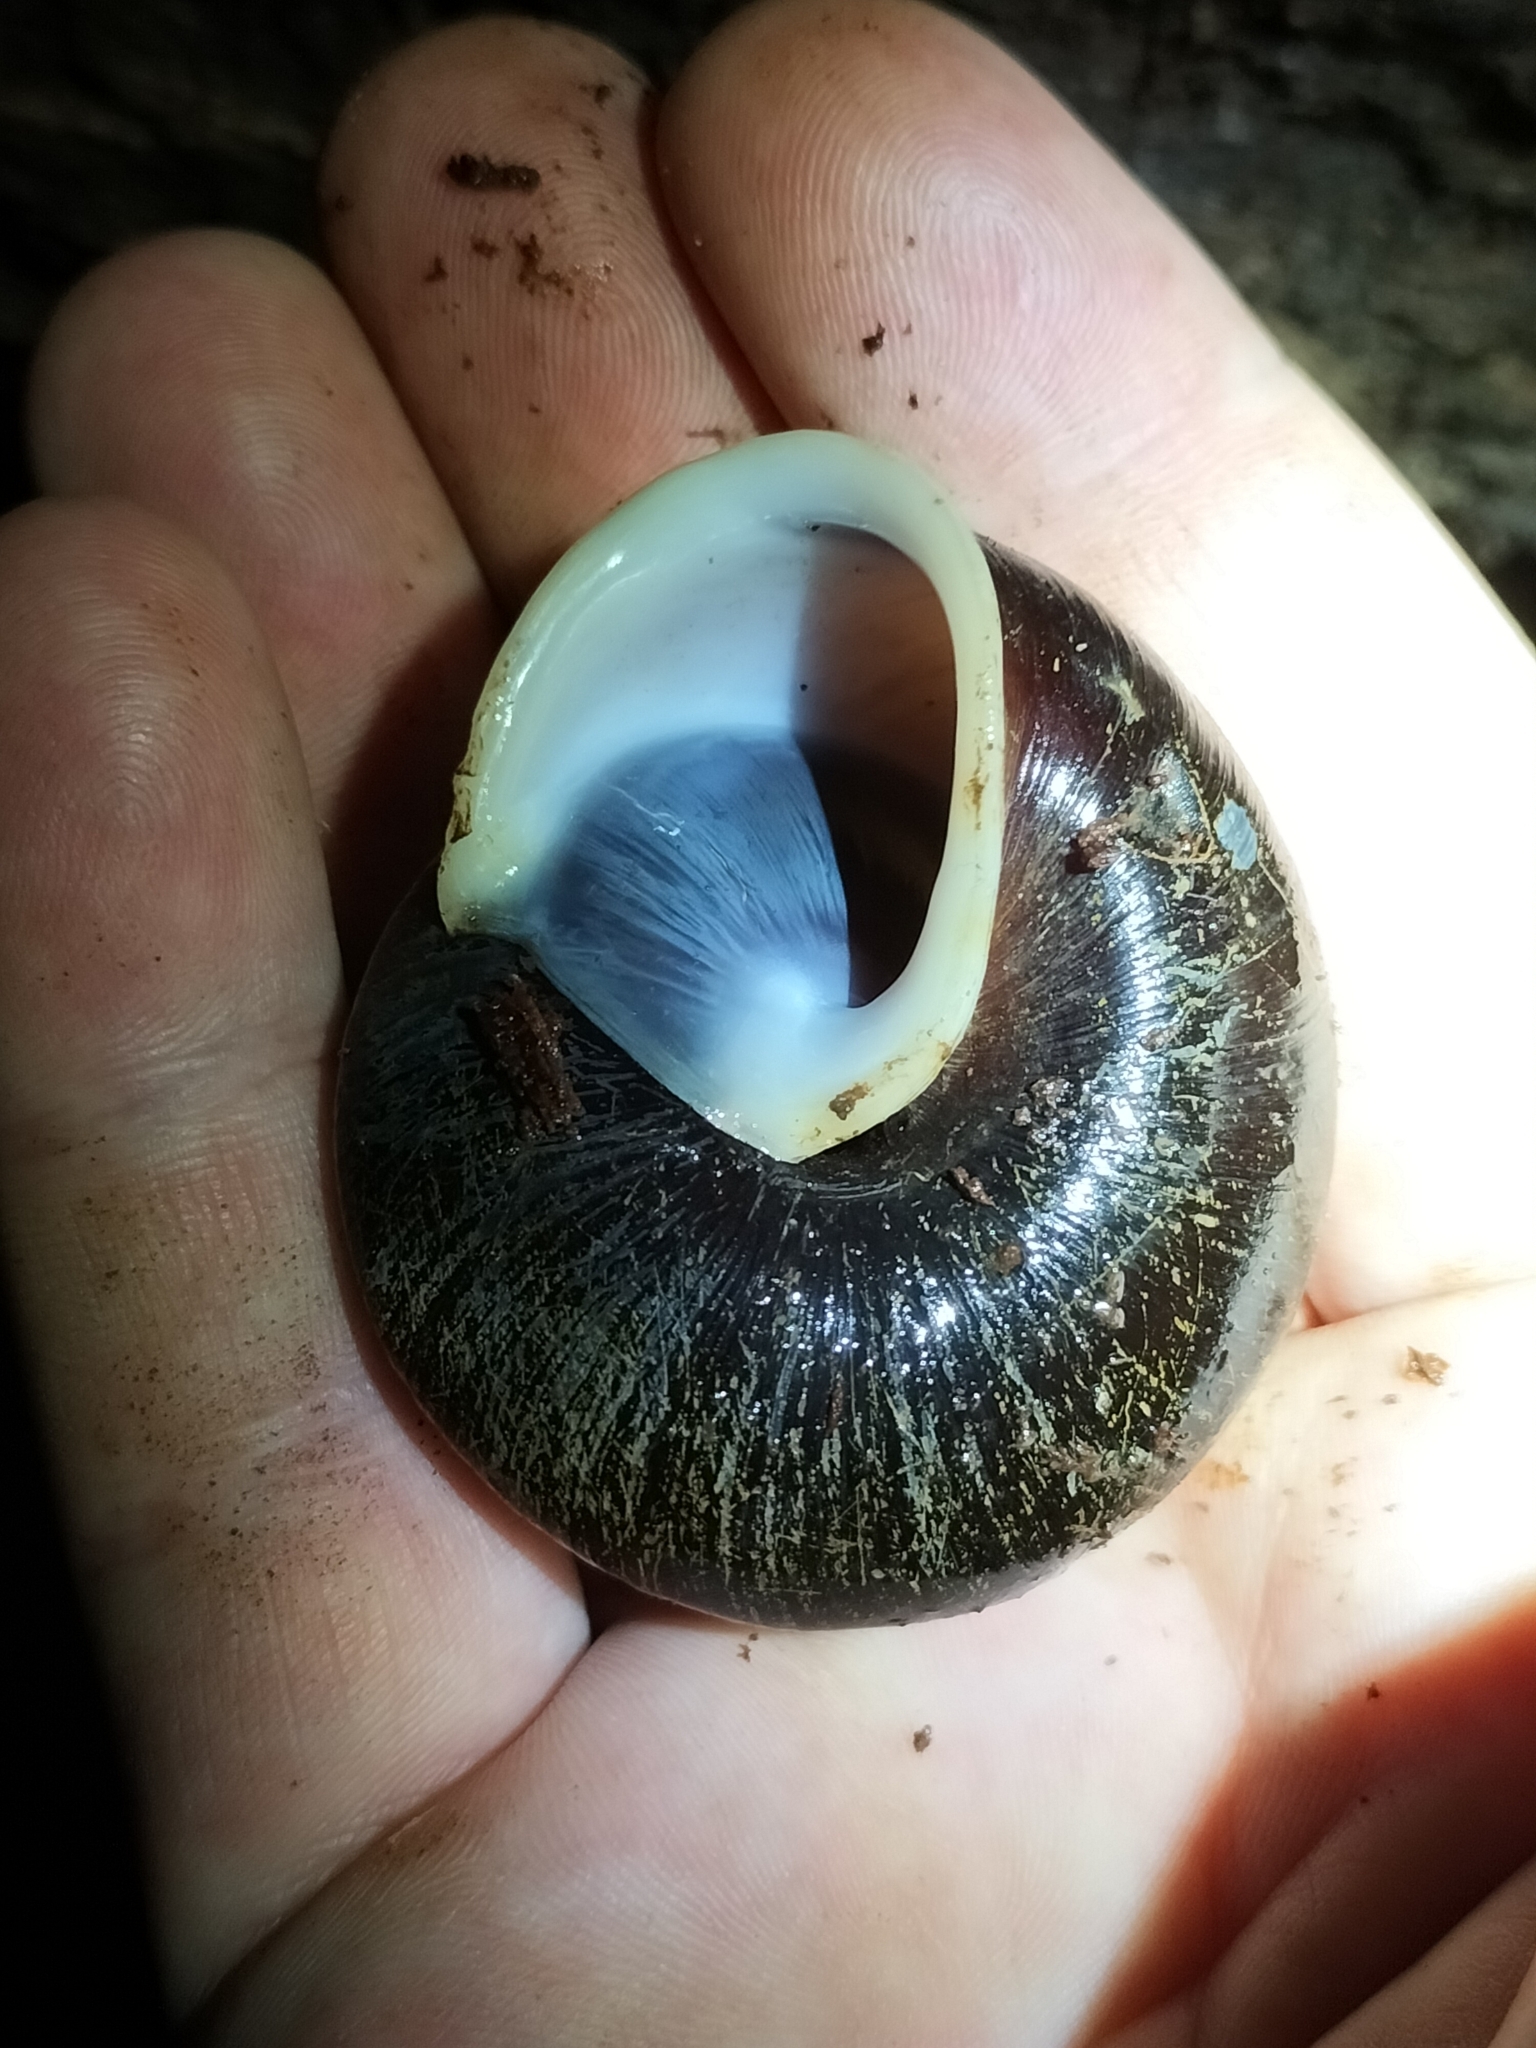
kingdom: Animalia
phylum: Mollusca
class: Gastropoda
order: Stylommatophora
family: Camaenidae
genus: Hadra
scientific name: Hadra webbi
